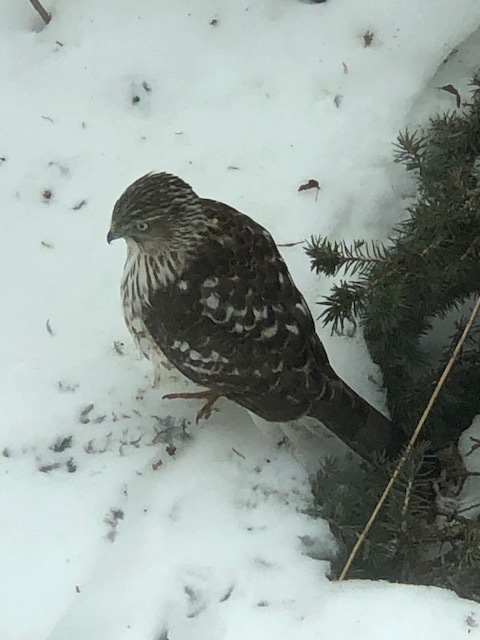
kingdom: Animalia
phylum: Chordata
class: Aves
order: Accipitriformes
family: Accipitridae
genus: Accipiter
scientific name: Accipiter cooperii
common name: Cooper's hawk
